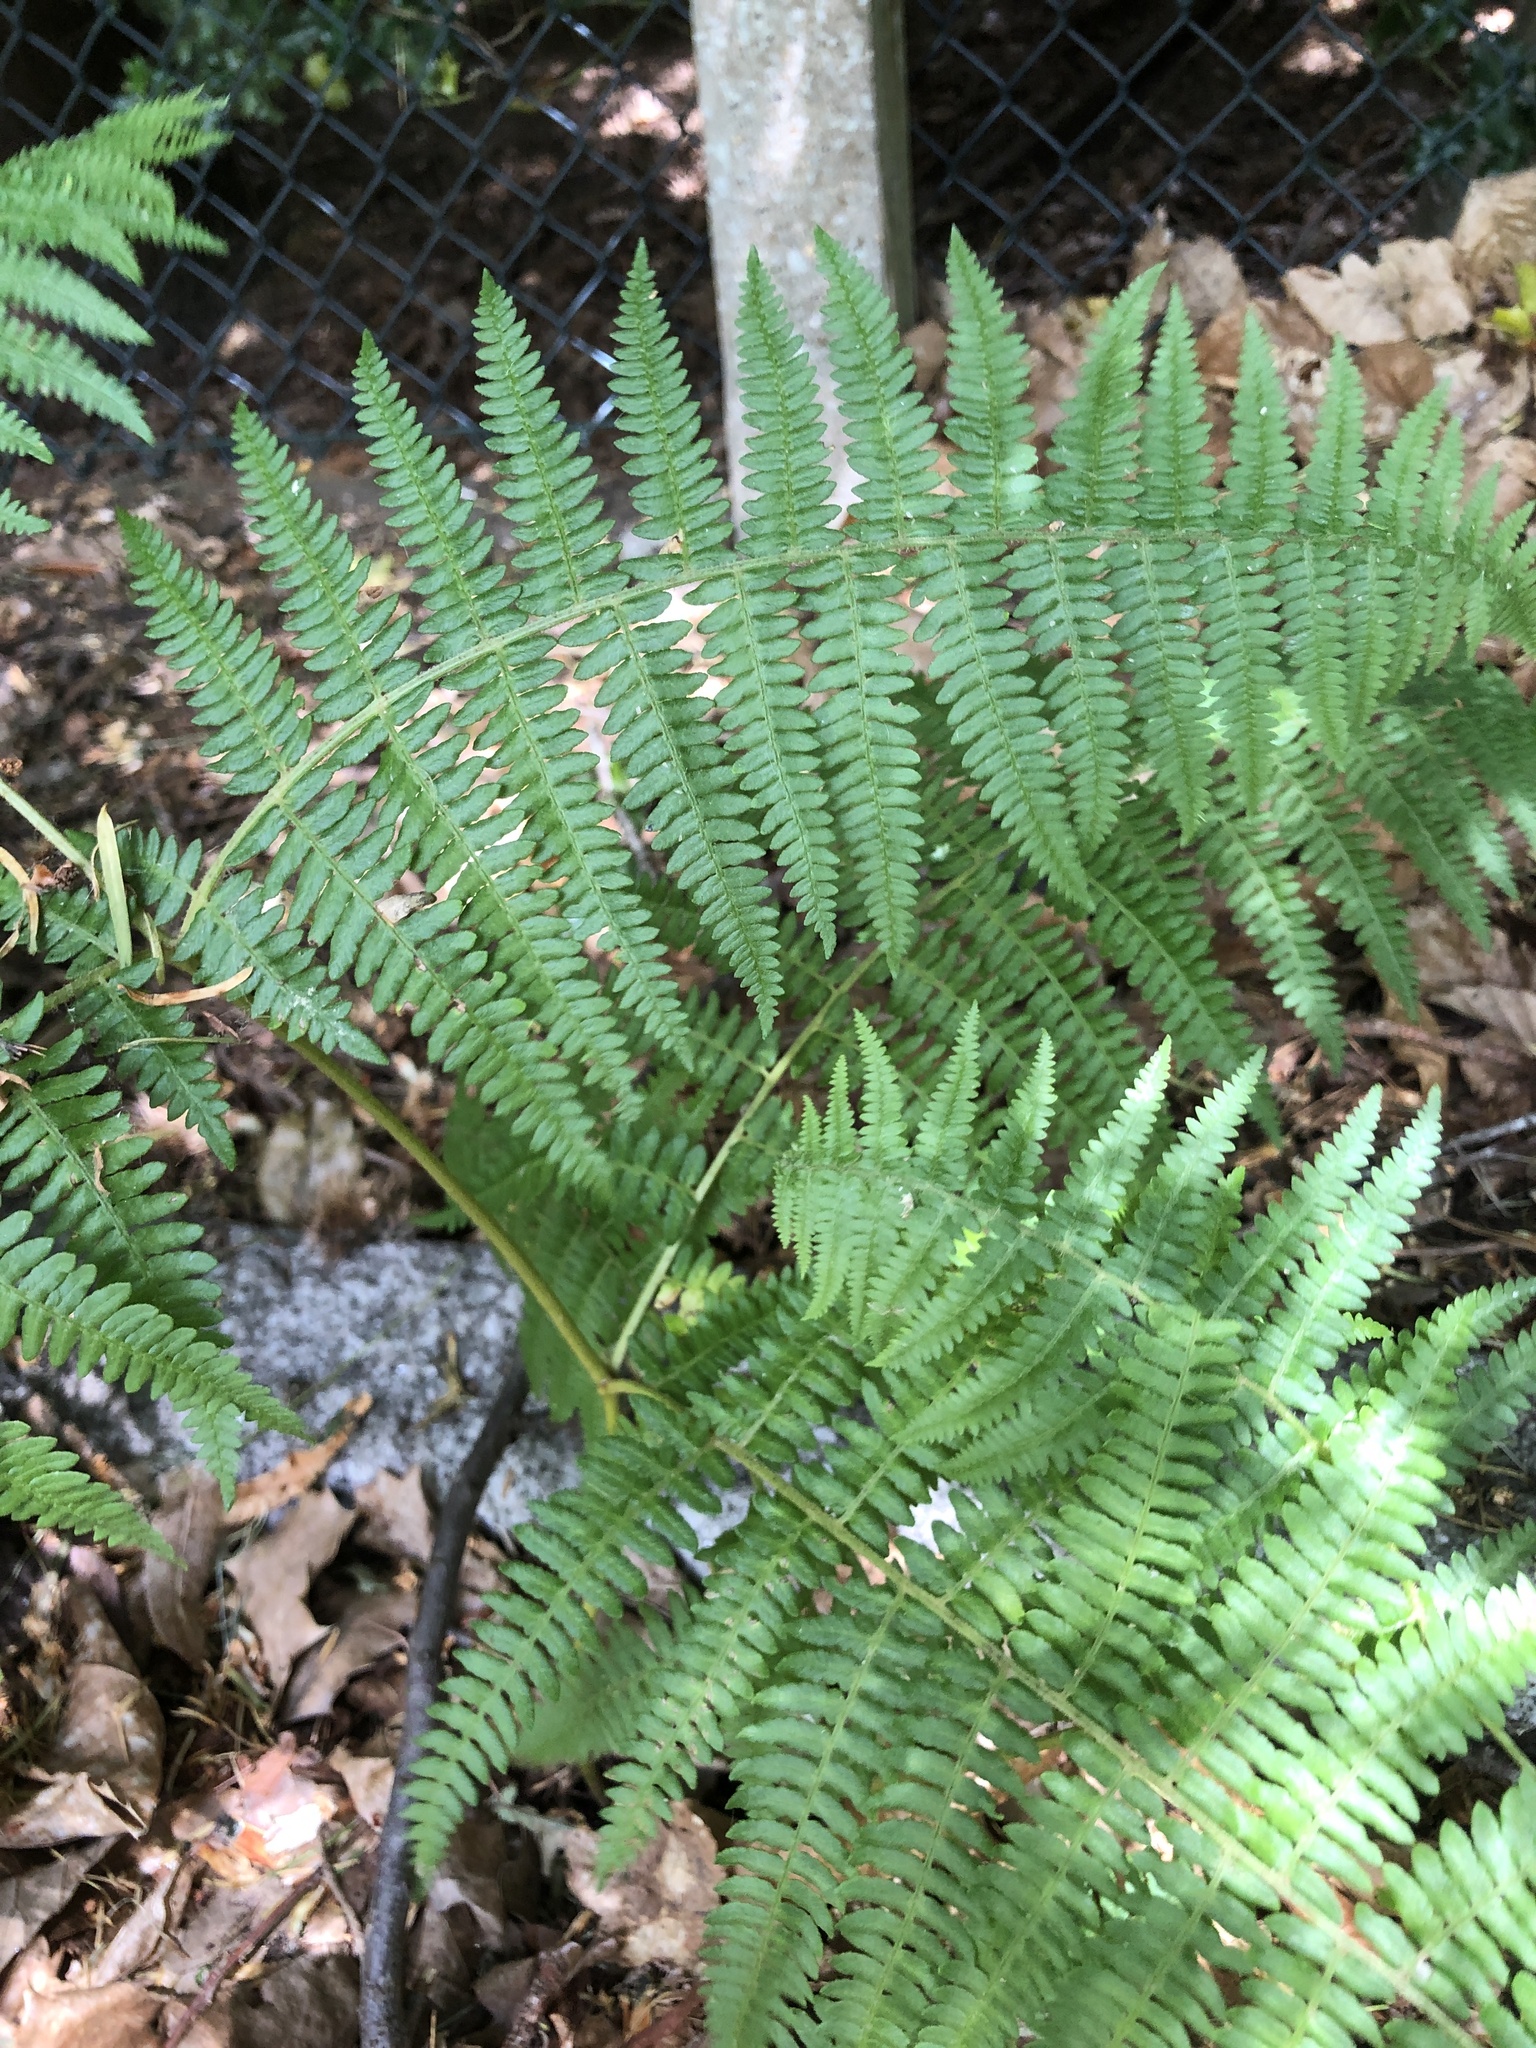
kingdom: Plantae
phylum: Tracheophyta
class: Polypodiopsida
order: Polypodiales
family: Dennstaedtiaceae
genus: Pteridium
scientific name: Pteridium aquilinum
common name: Bracken
